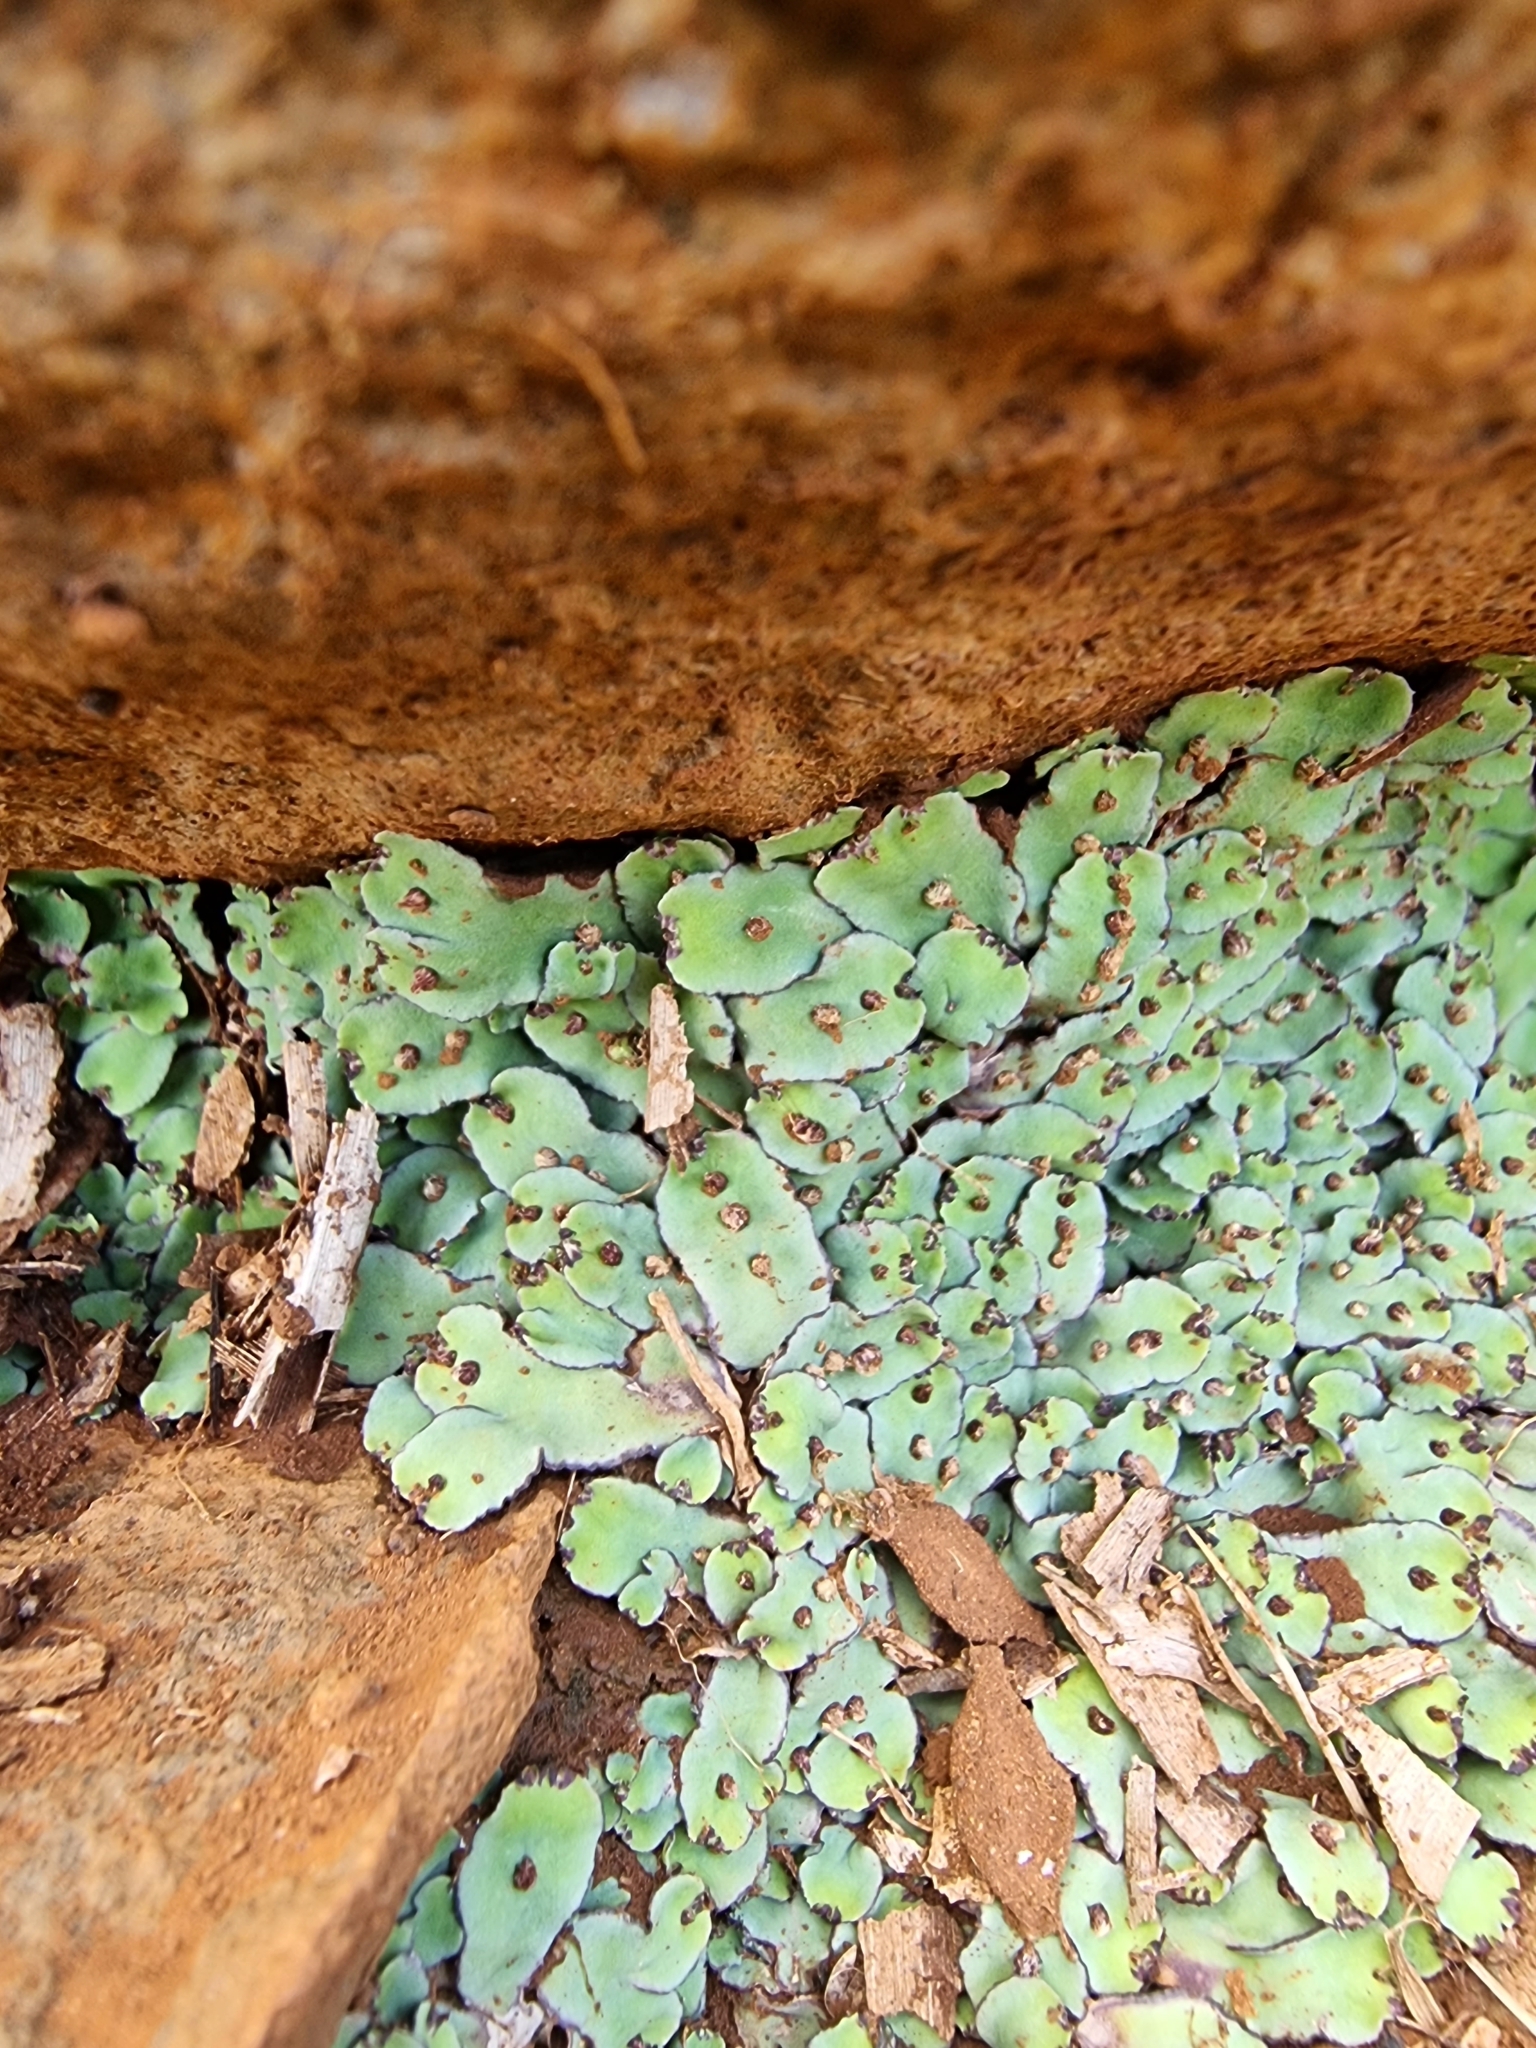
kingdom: Plantae
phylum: Marchantiophyta
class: Marchantiopsida
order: Marchantiales
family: Aytoniaceae
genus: Plagiochasma
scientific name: Plagiochasma rupestre
